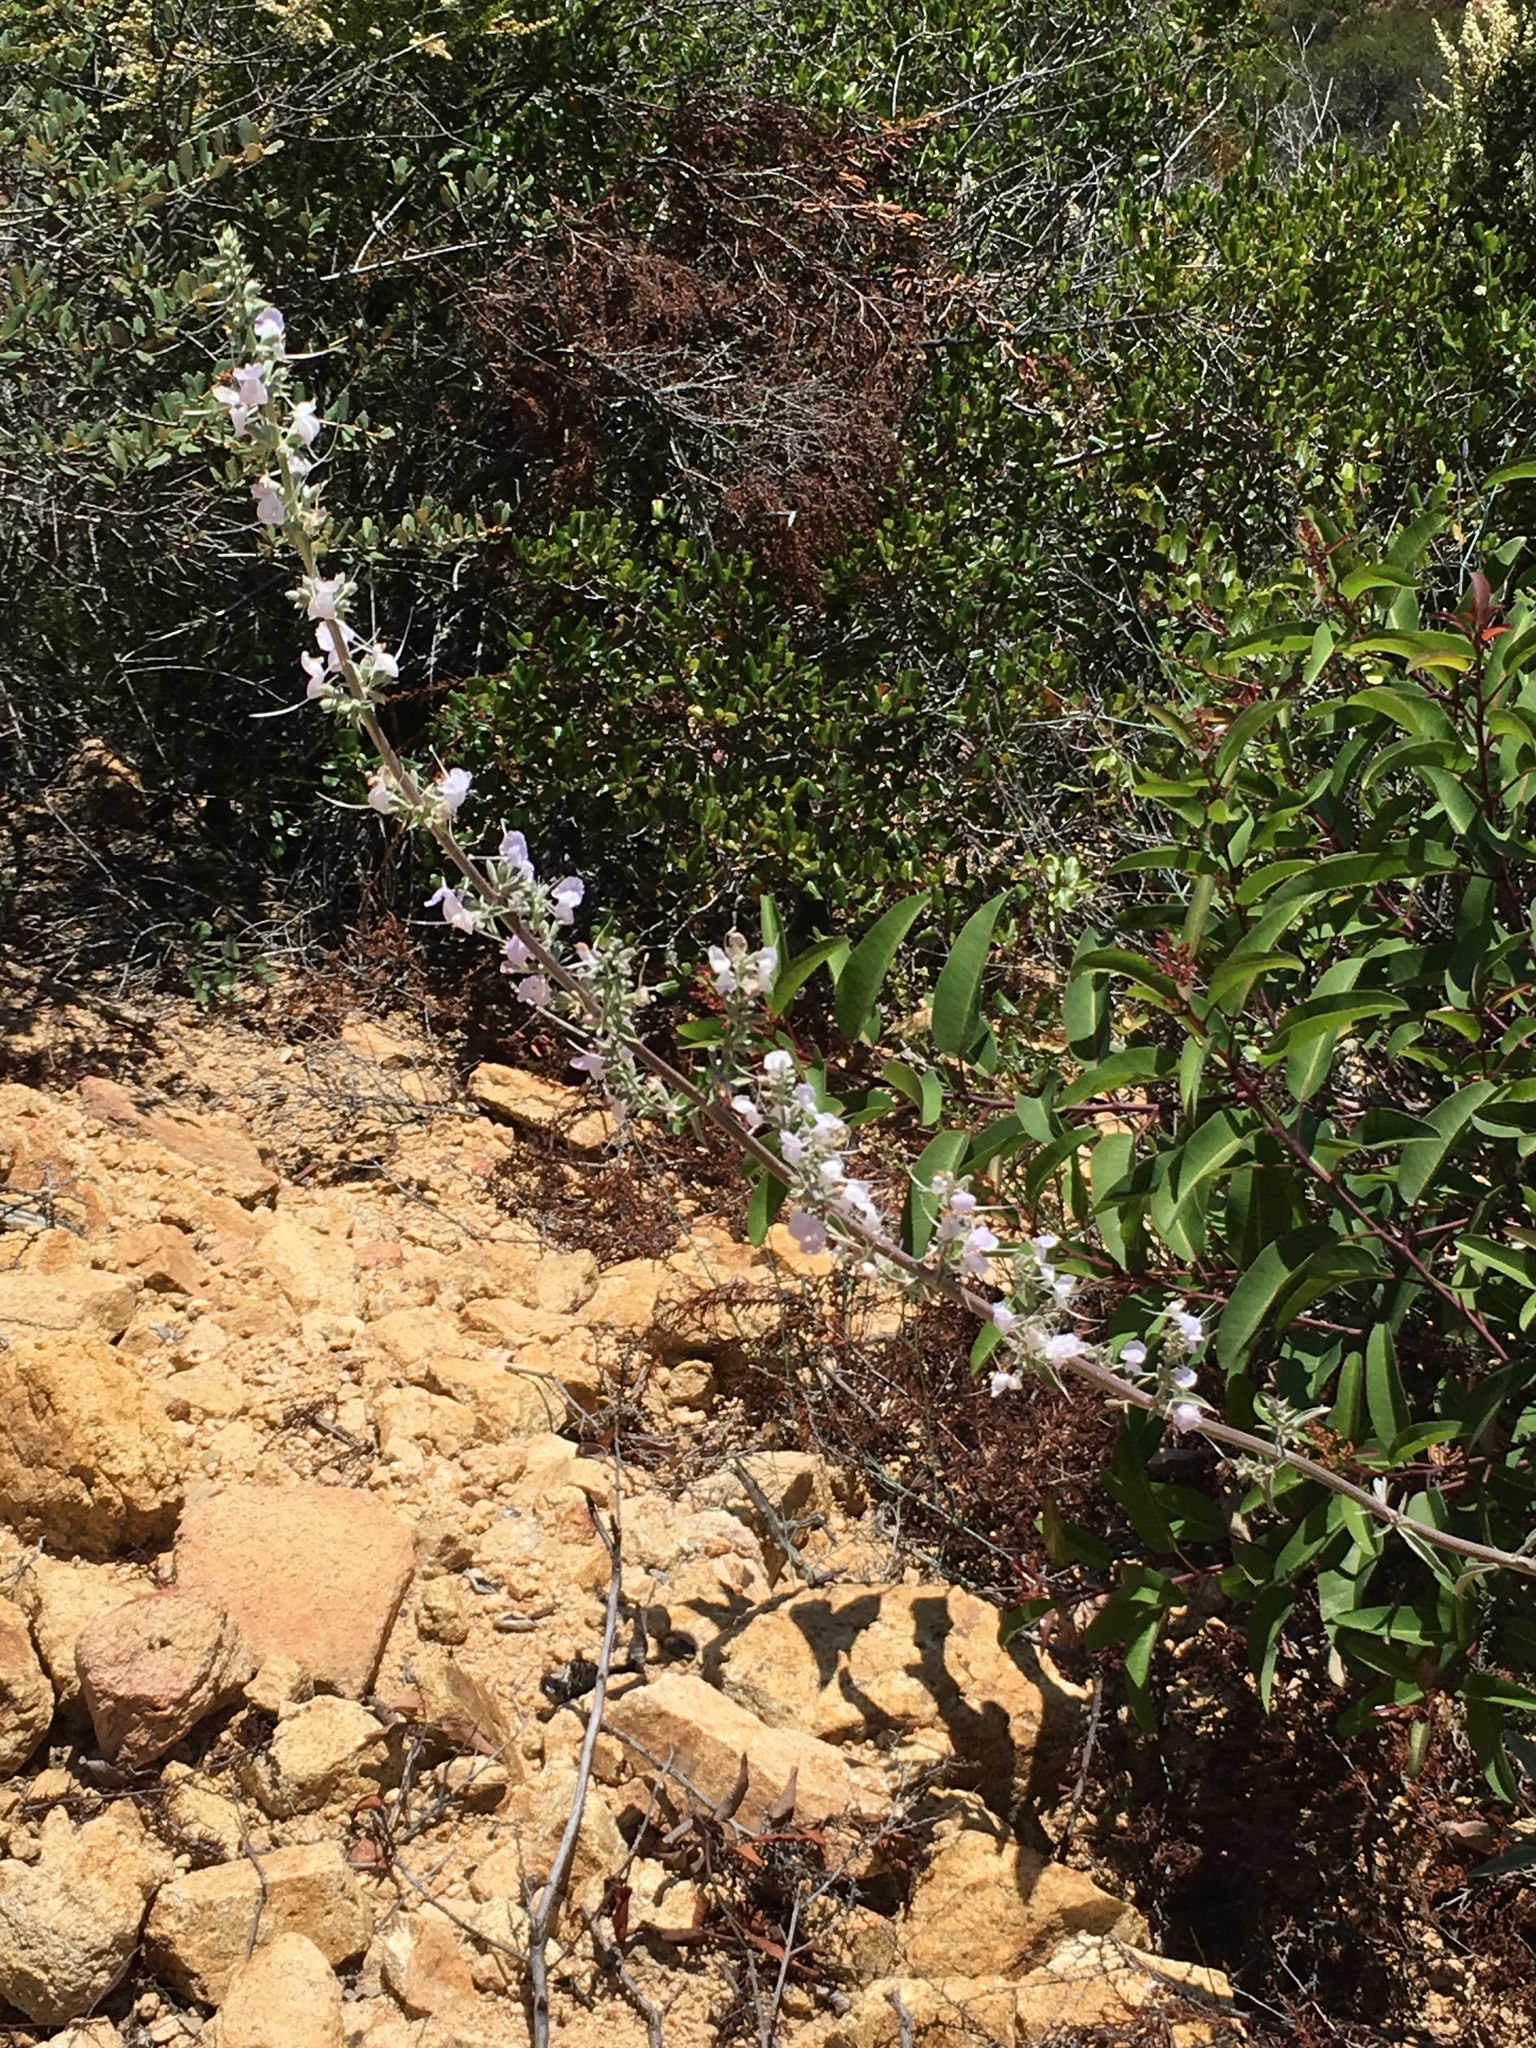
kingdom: Plantae
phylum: Tracheophyta
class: Magnoliopsida
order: Lamiales
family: Lamiaceae
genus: Salvia
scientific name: Salvia apiana
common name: White sage
